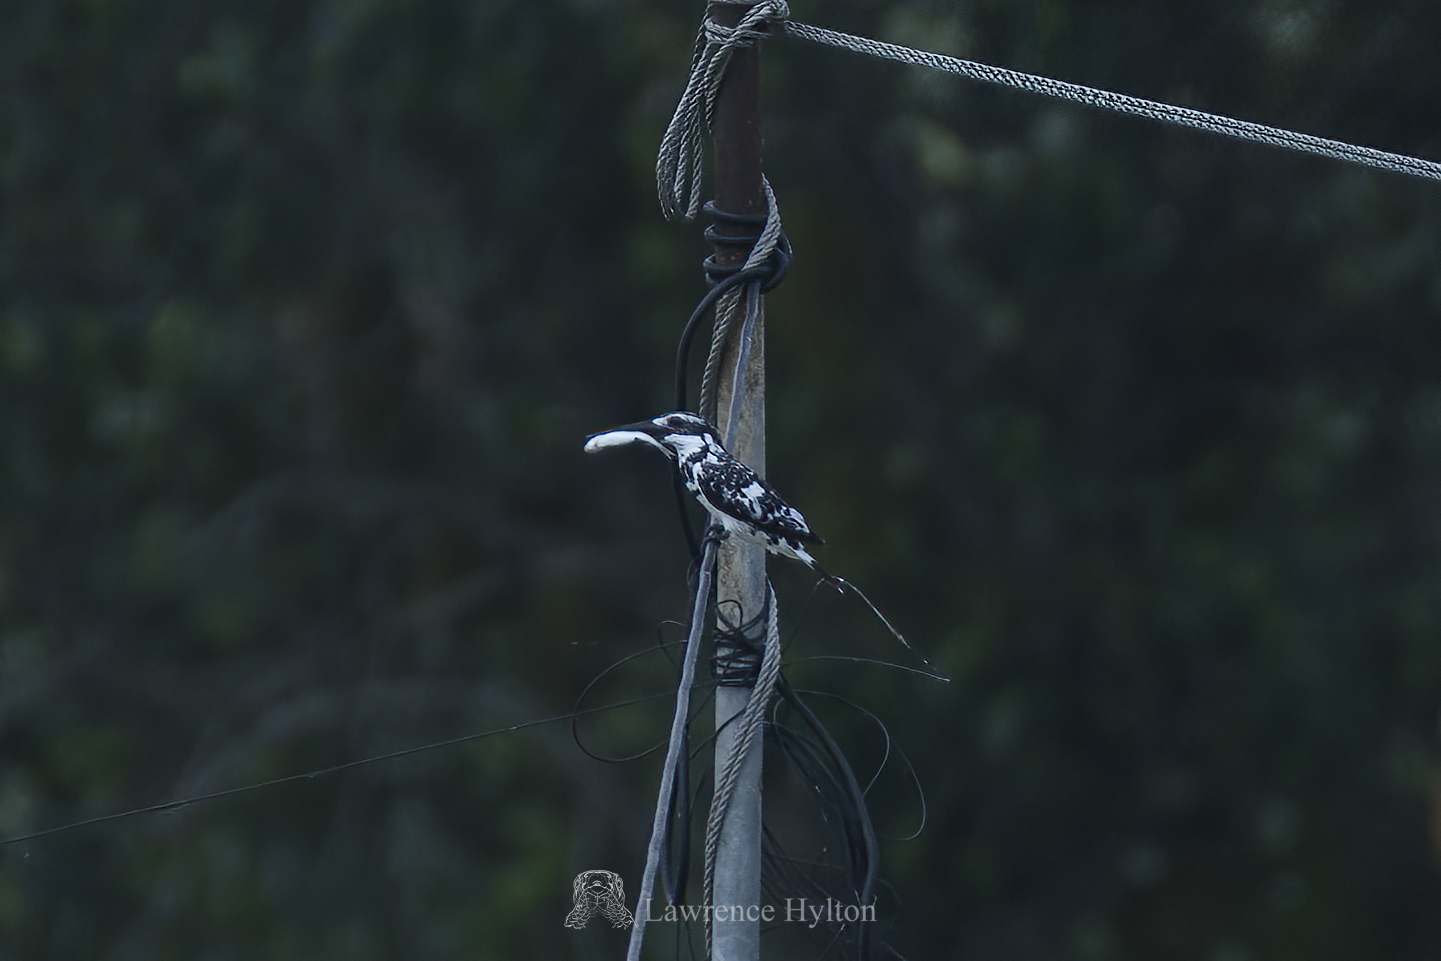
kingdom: Animalia
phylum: Chordata
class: Aves
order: Coraciiformes
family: Alcedinidae
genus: Ceryle
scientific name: Ceryle rudis
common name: Pied kingfisher
